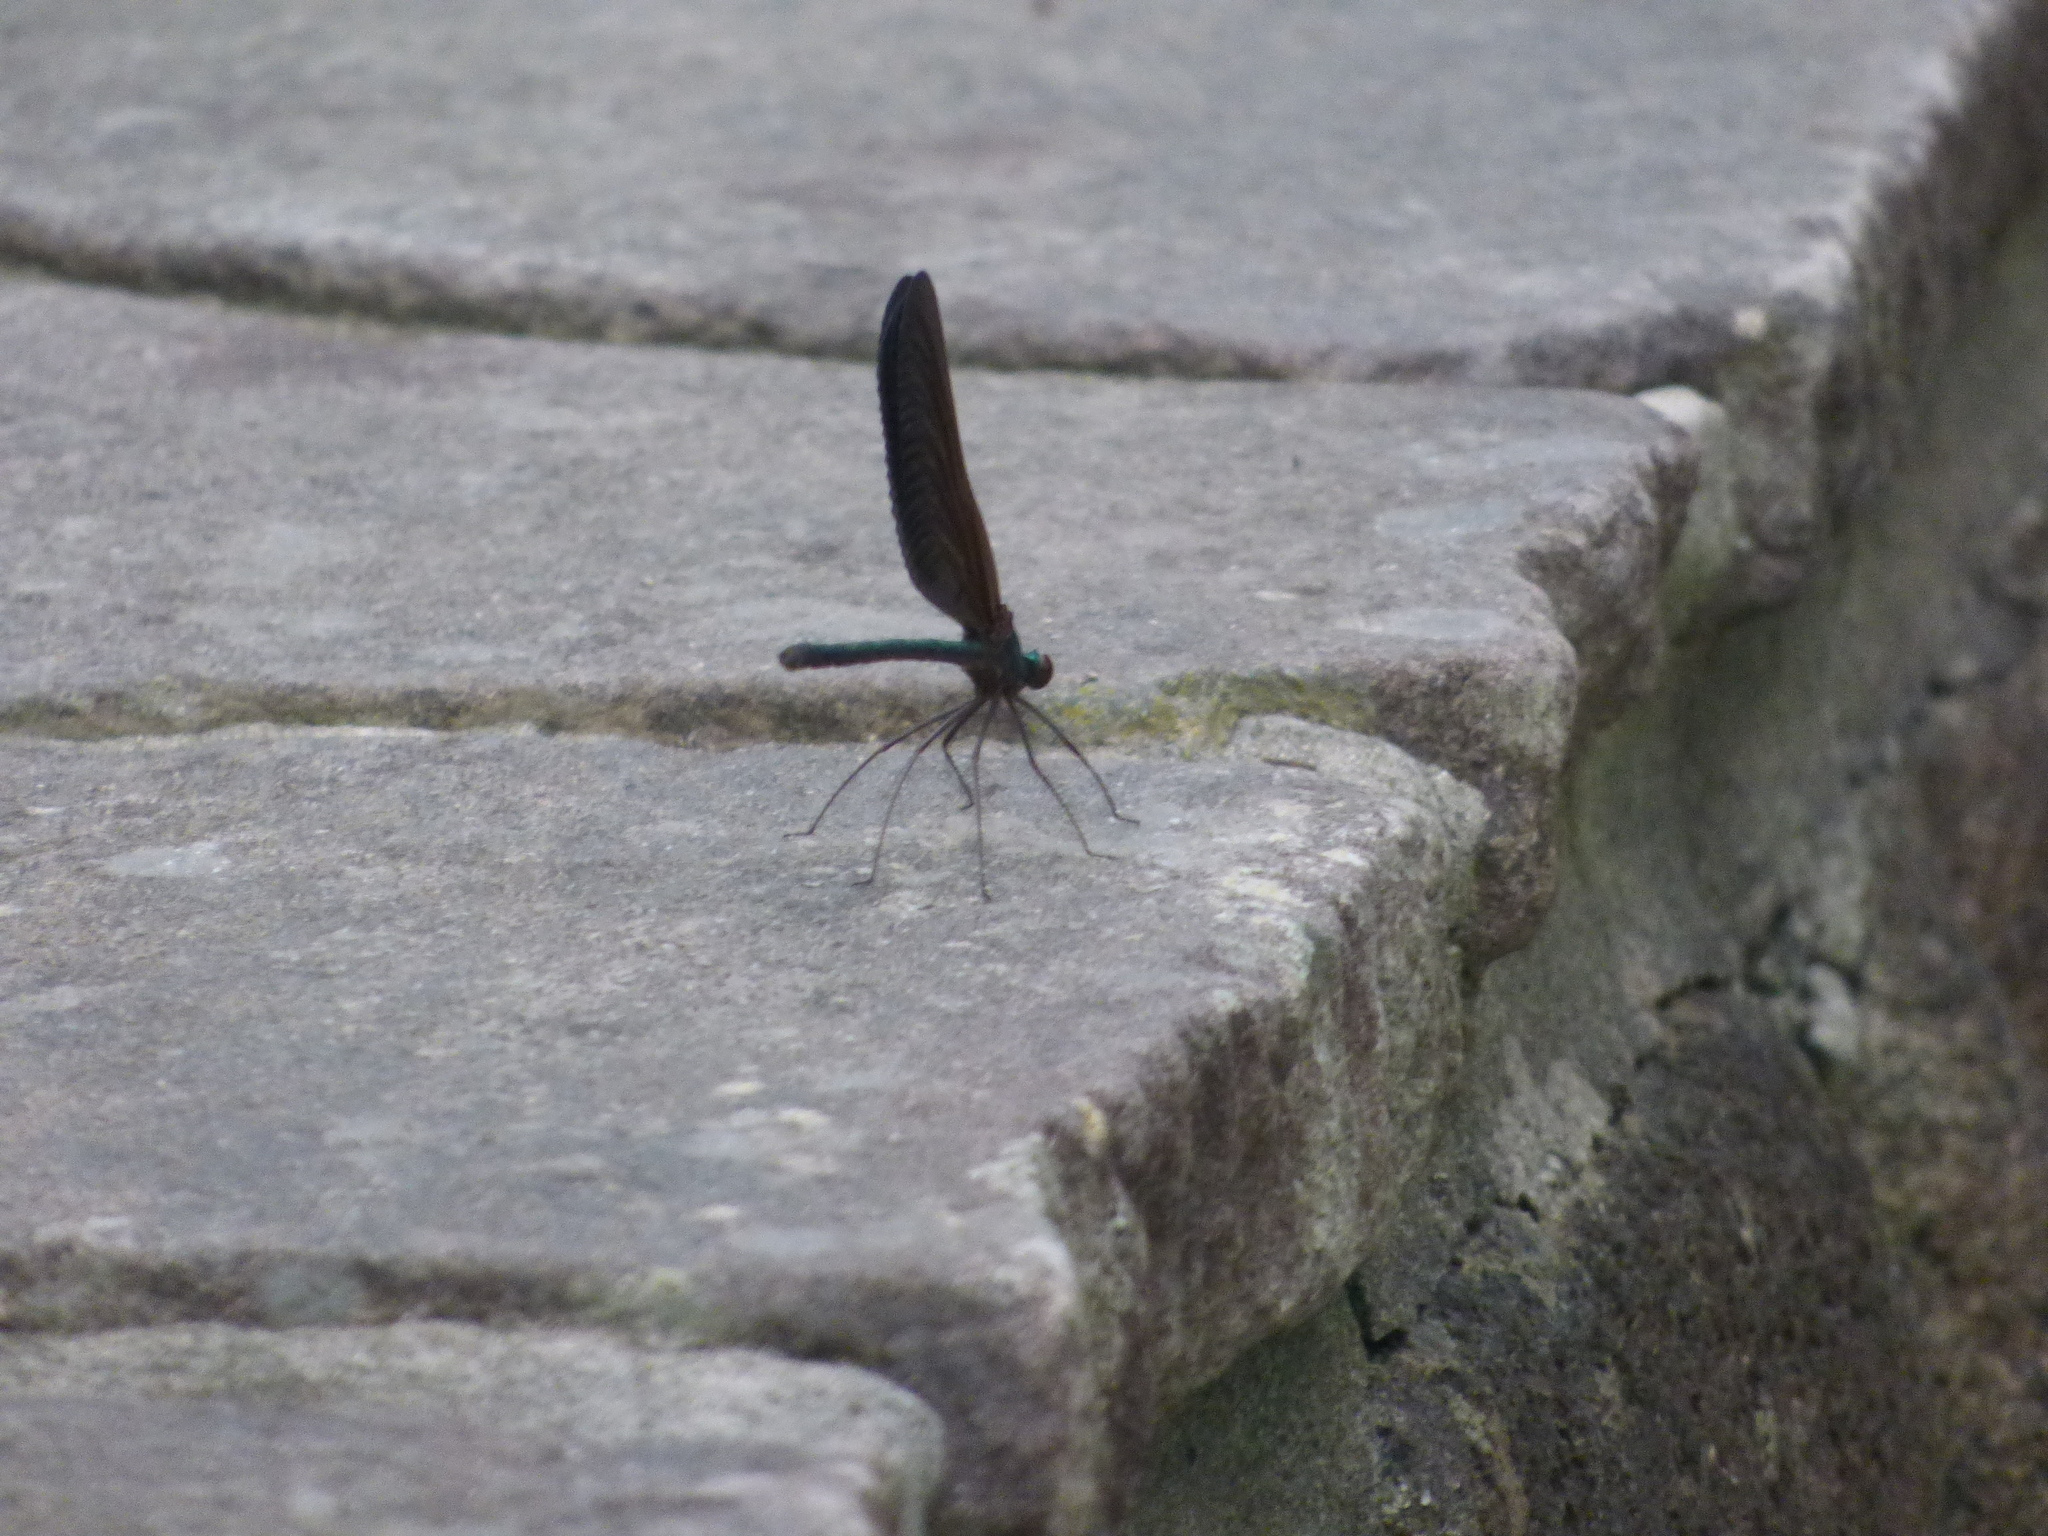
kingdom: Animalia
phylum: Arthropoda
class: Insecta
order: Odonata
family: Calopterygidae
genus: Atrocalopteryx
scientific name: Atrocalopteryx atrata
